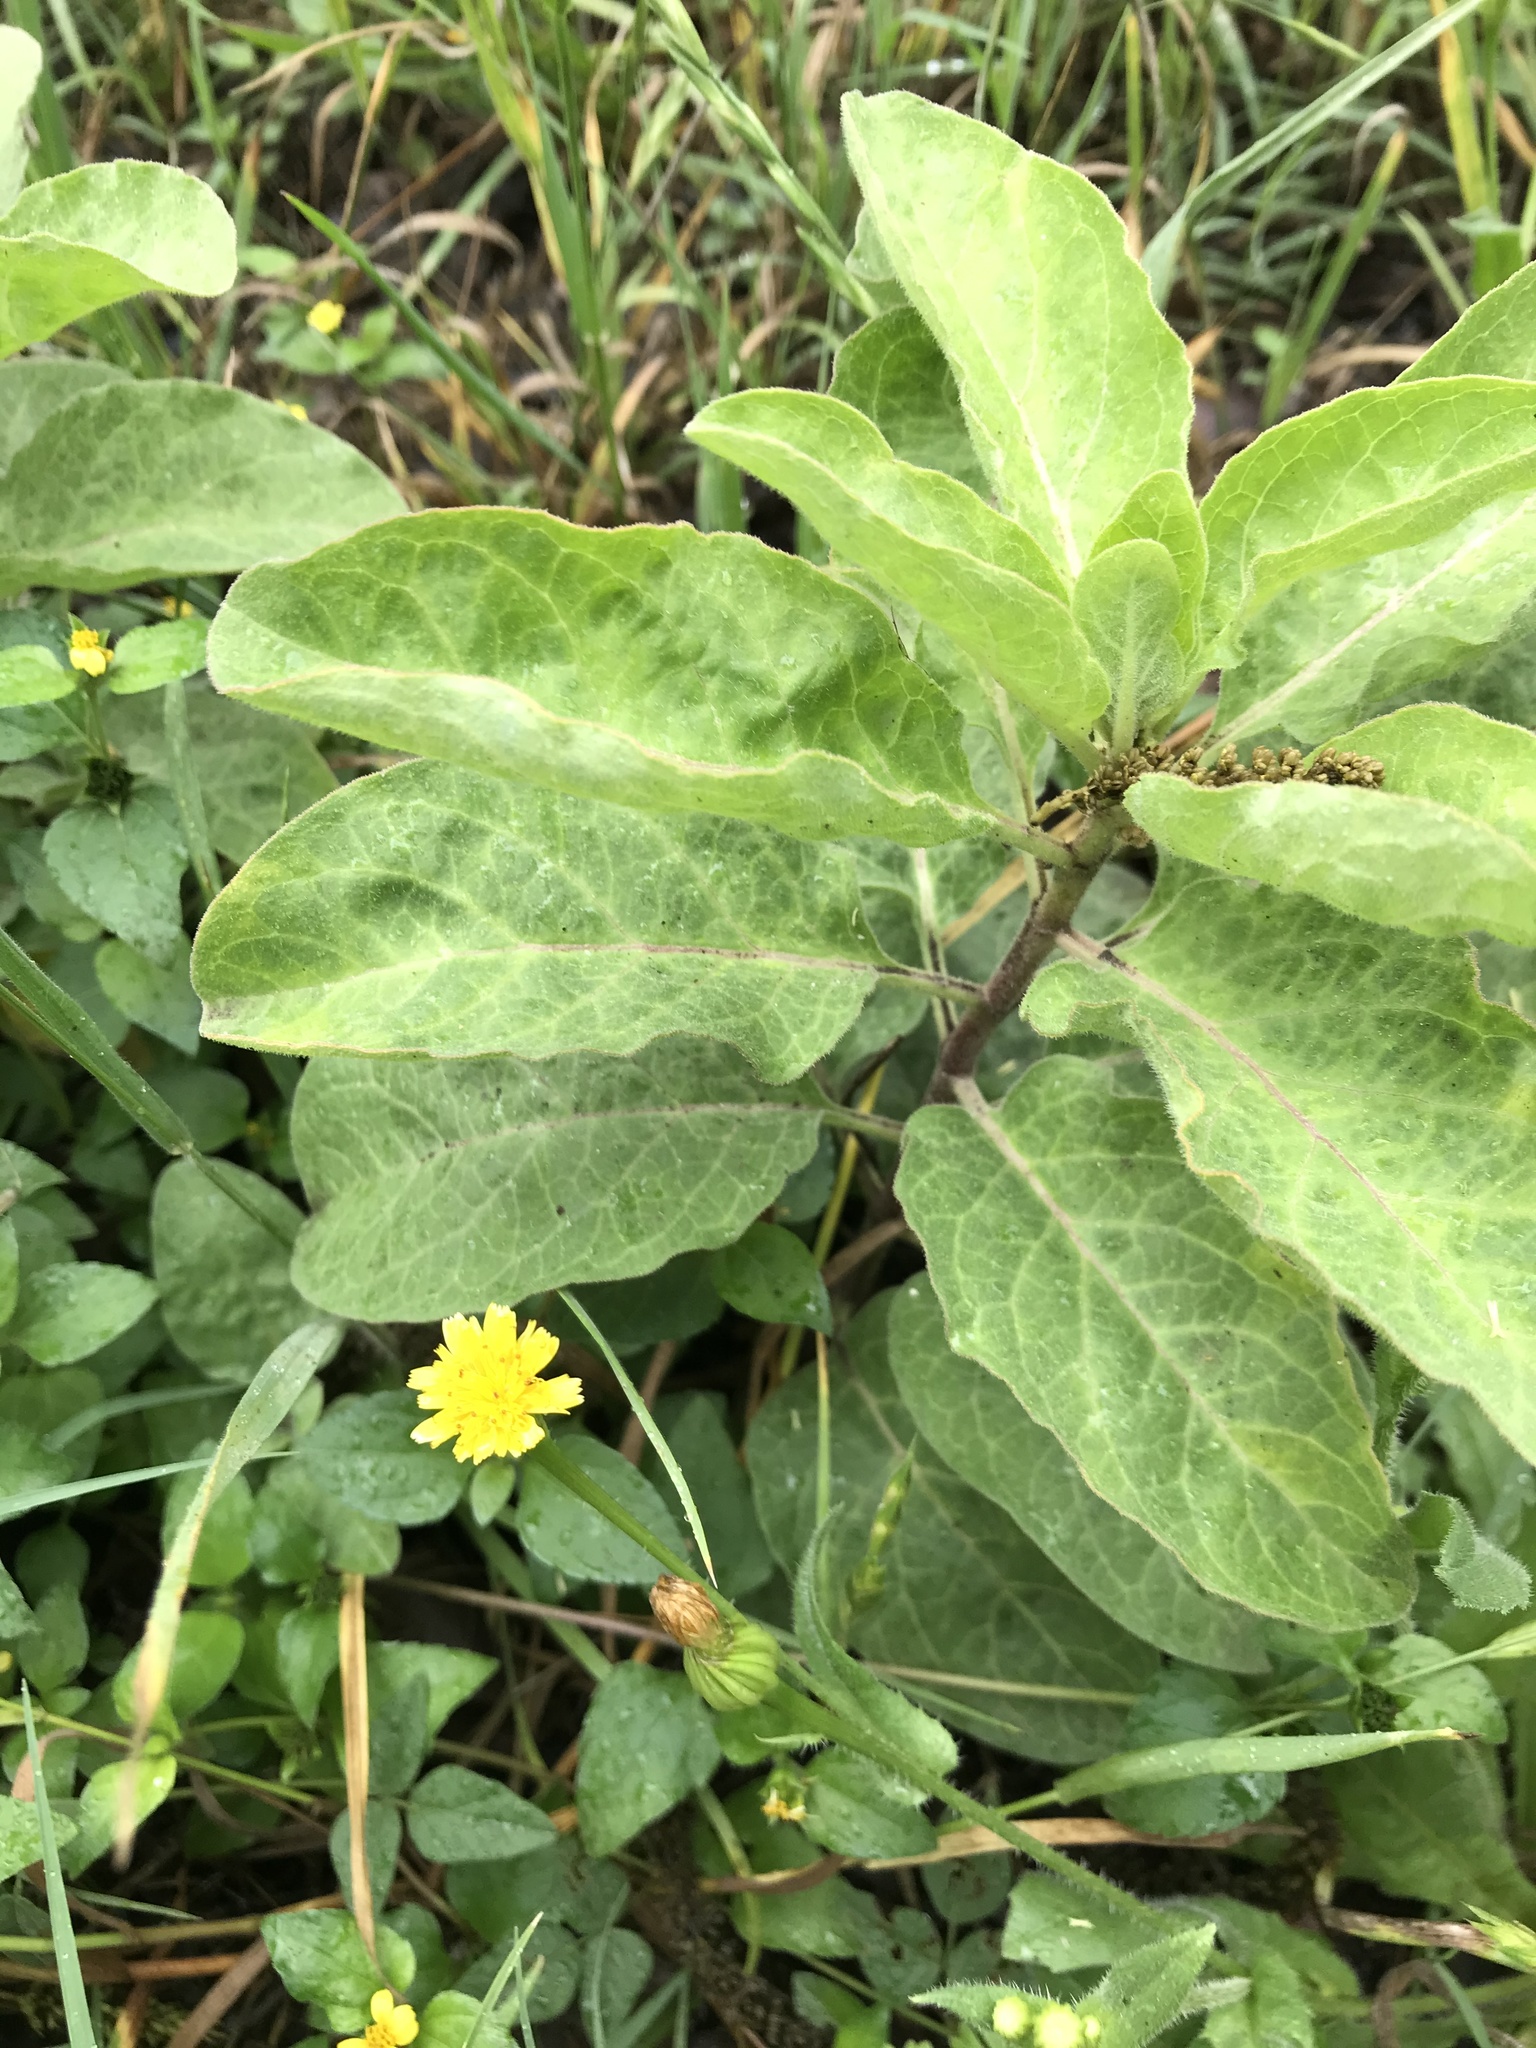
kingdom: Plantae
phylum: Tracheophyta
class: Magnoliopsida
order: Gentianales
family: Apocynaceae
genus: Asclepias
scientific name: Asclepias oenotheroides
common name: Zizotes milkweed
